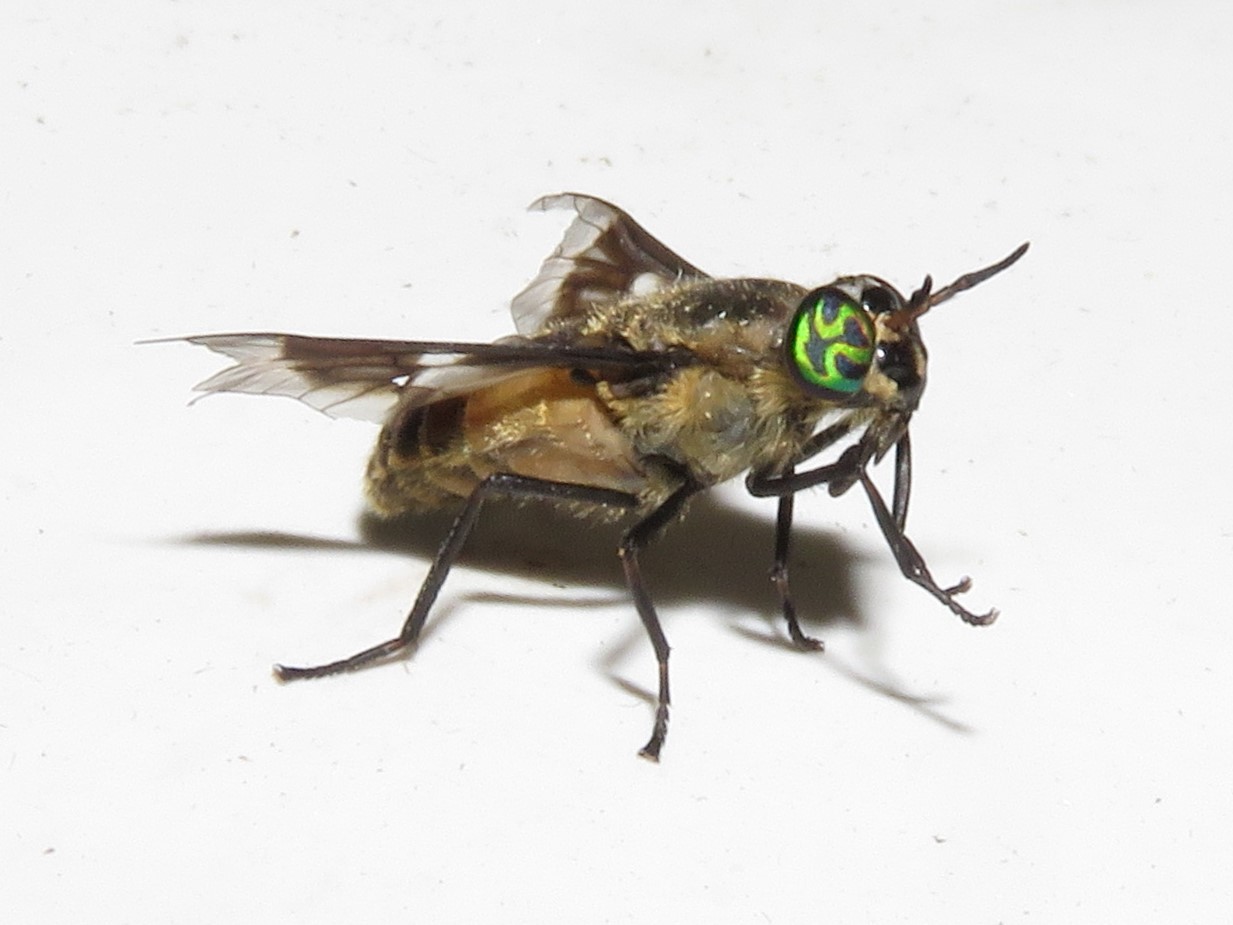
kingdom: Animalia
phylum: Arthropoda
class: Insecta
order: Diptera
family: Tabanidae
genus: Chrysops
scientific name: Chrysops excitans
